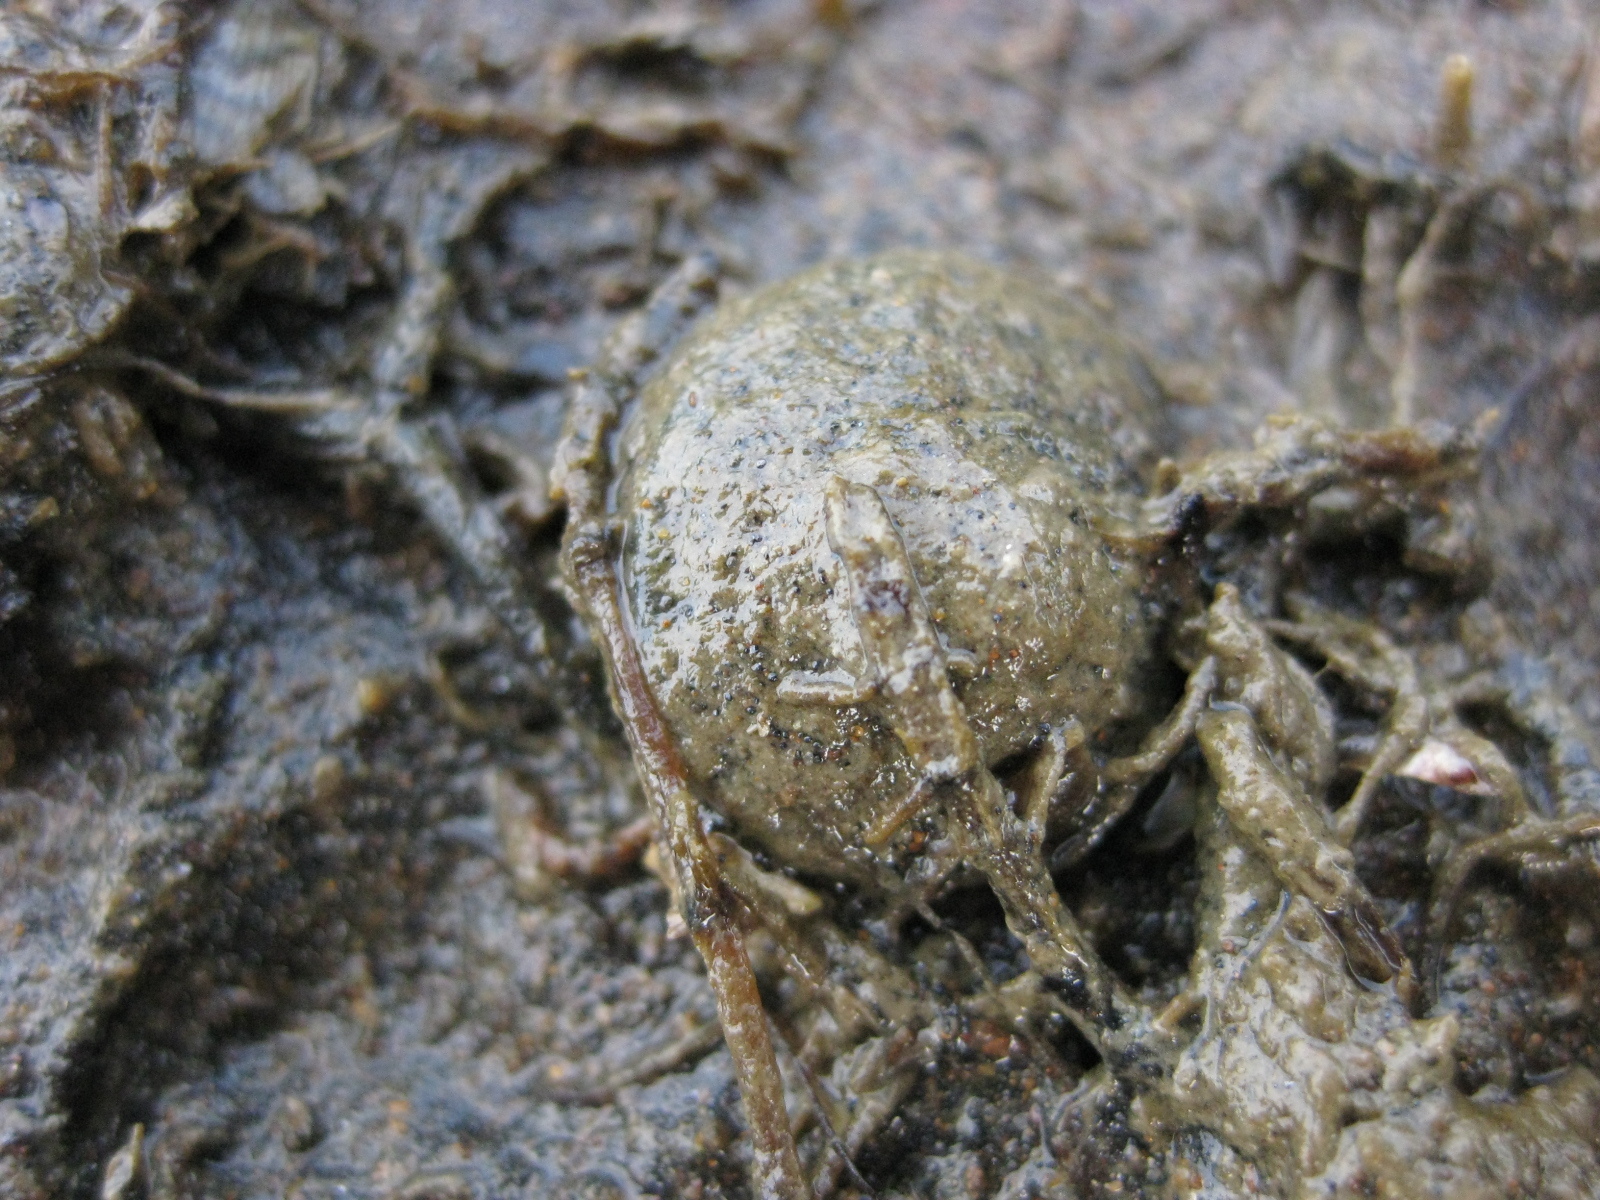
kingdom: Animalia
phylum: Mollusca
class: Gastropoda
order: Trochida
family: Turbinidae
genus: Lunella
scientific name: Lunella smaragda
